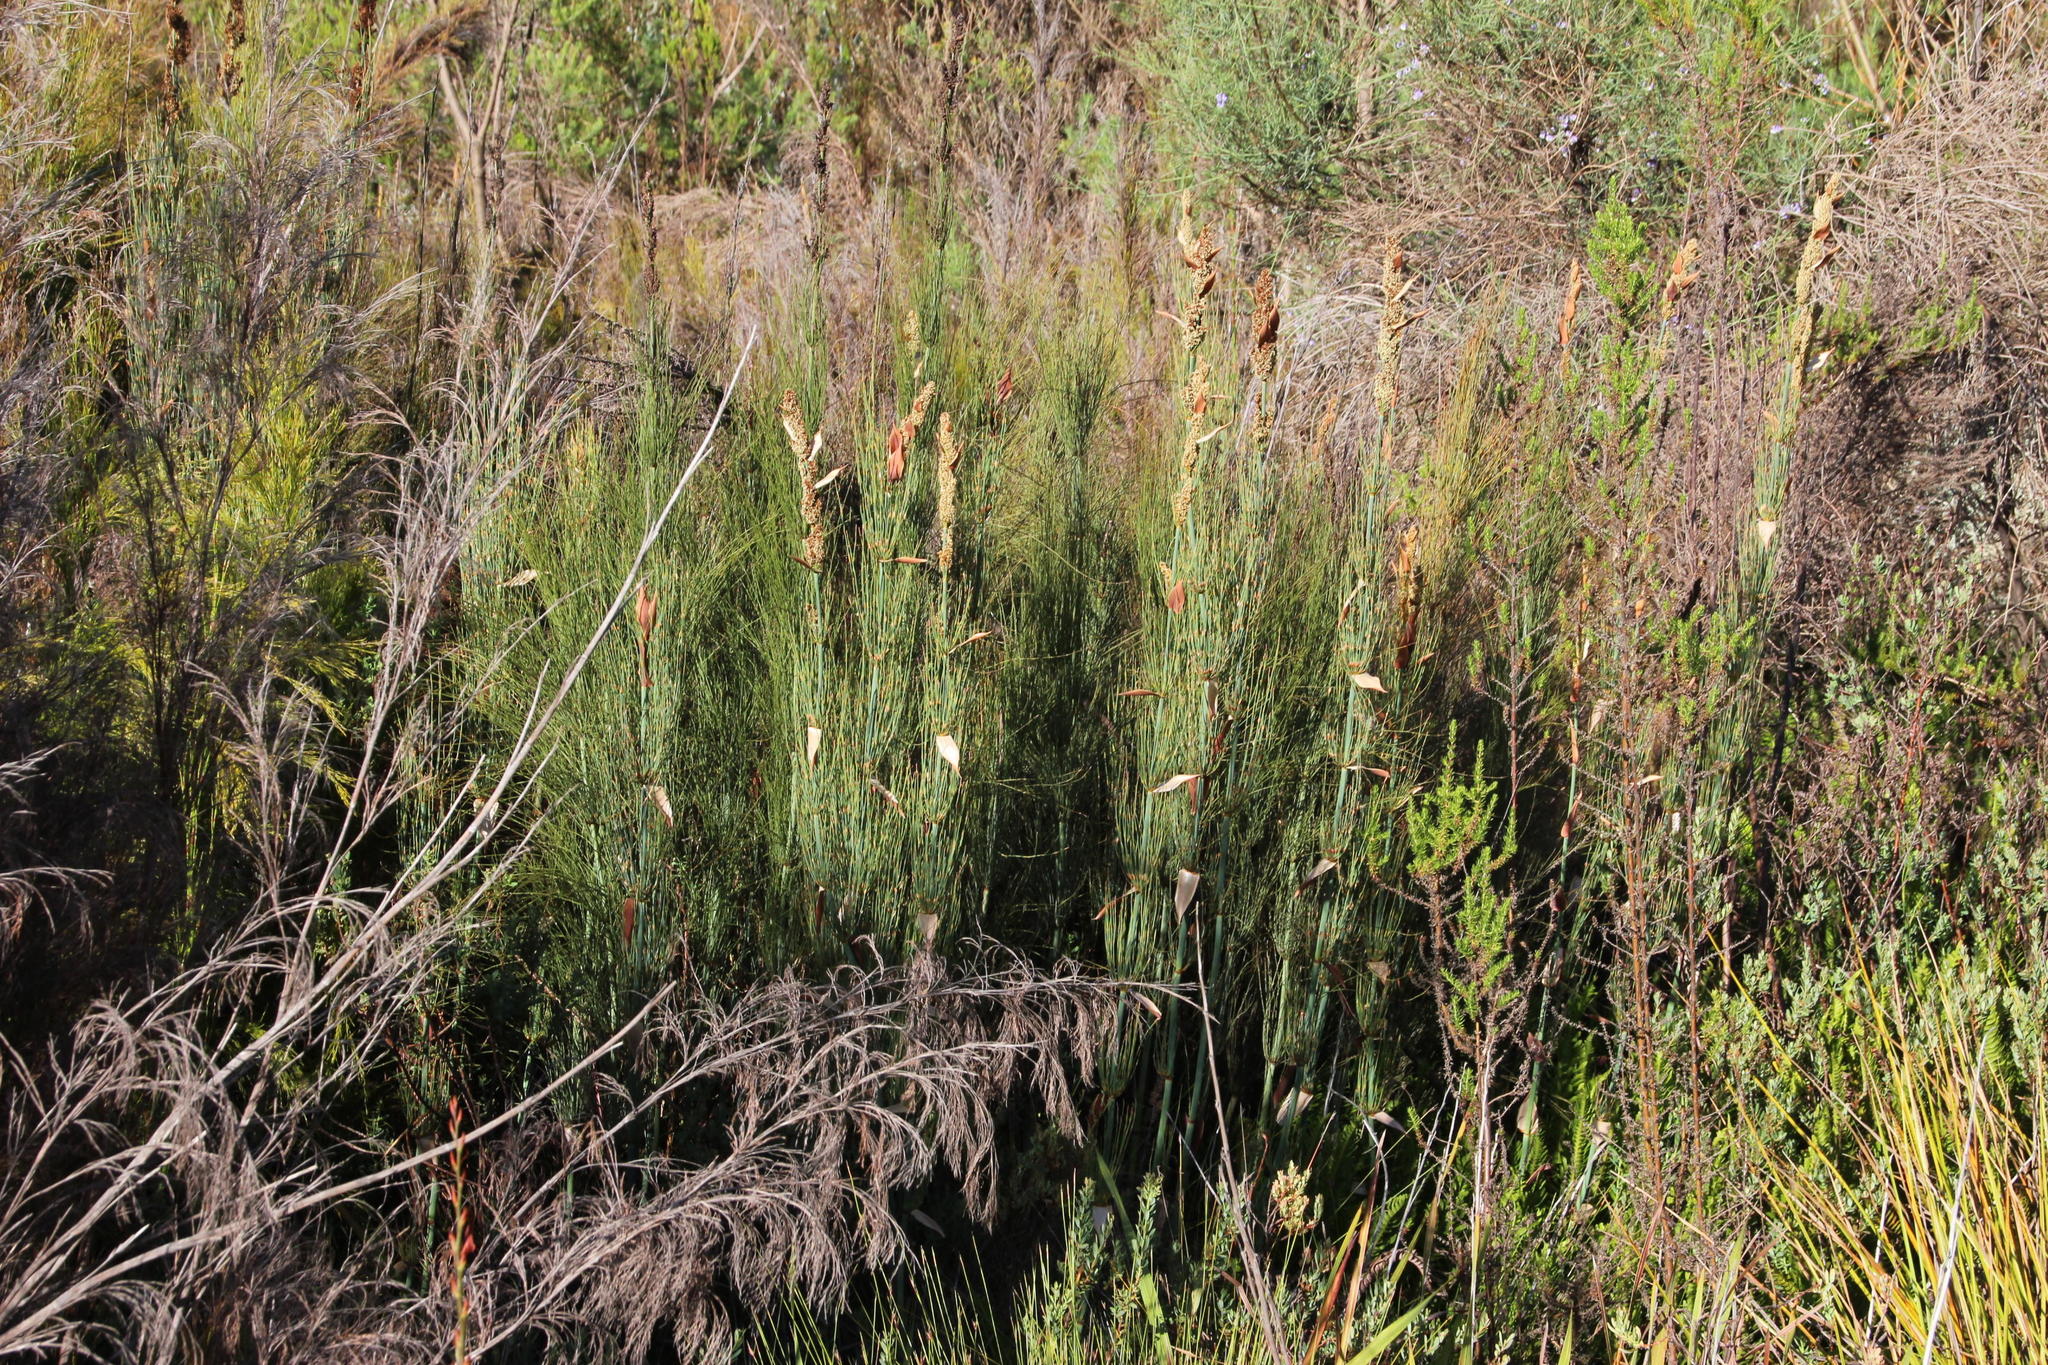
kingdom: Plantae
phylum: Tracheophyta
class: Liliopsida
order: Poales
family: Restionaceae
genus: Elegia
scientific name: Elegia capensis
